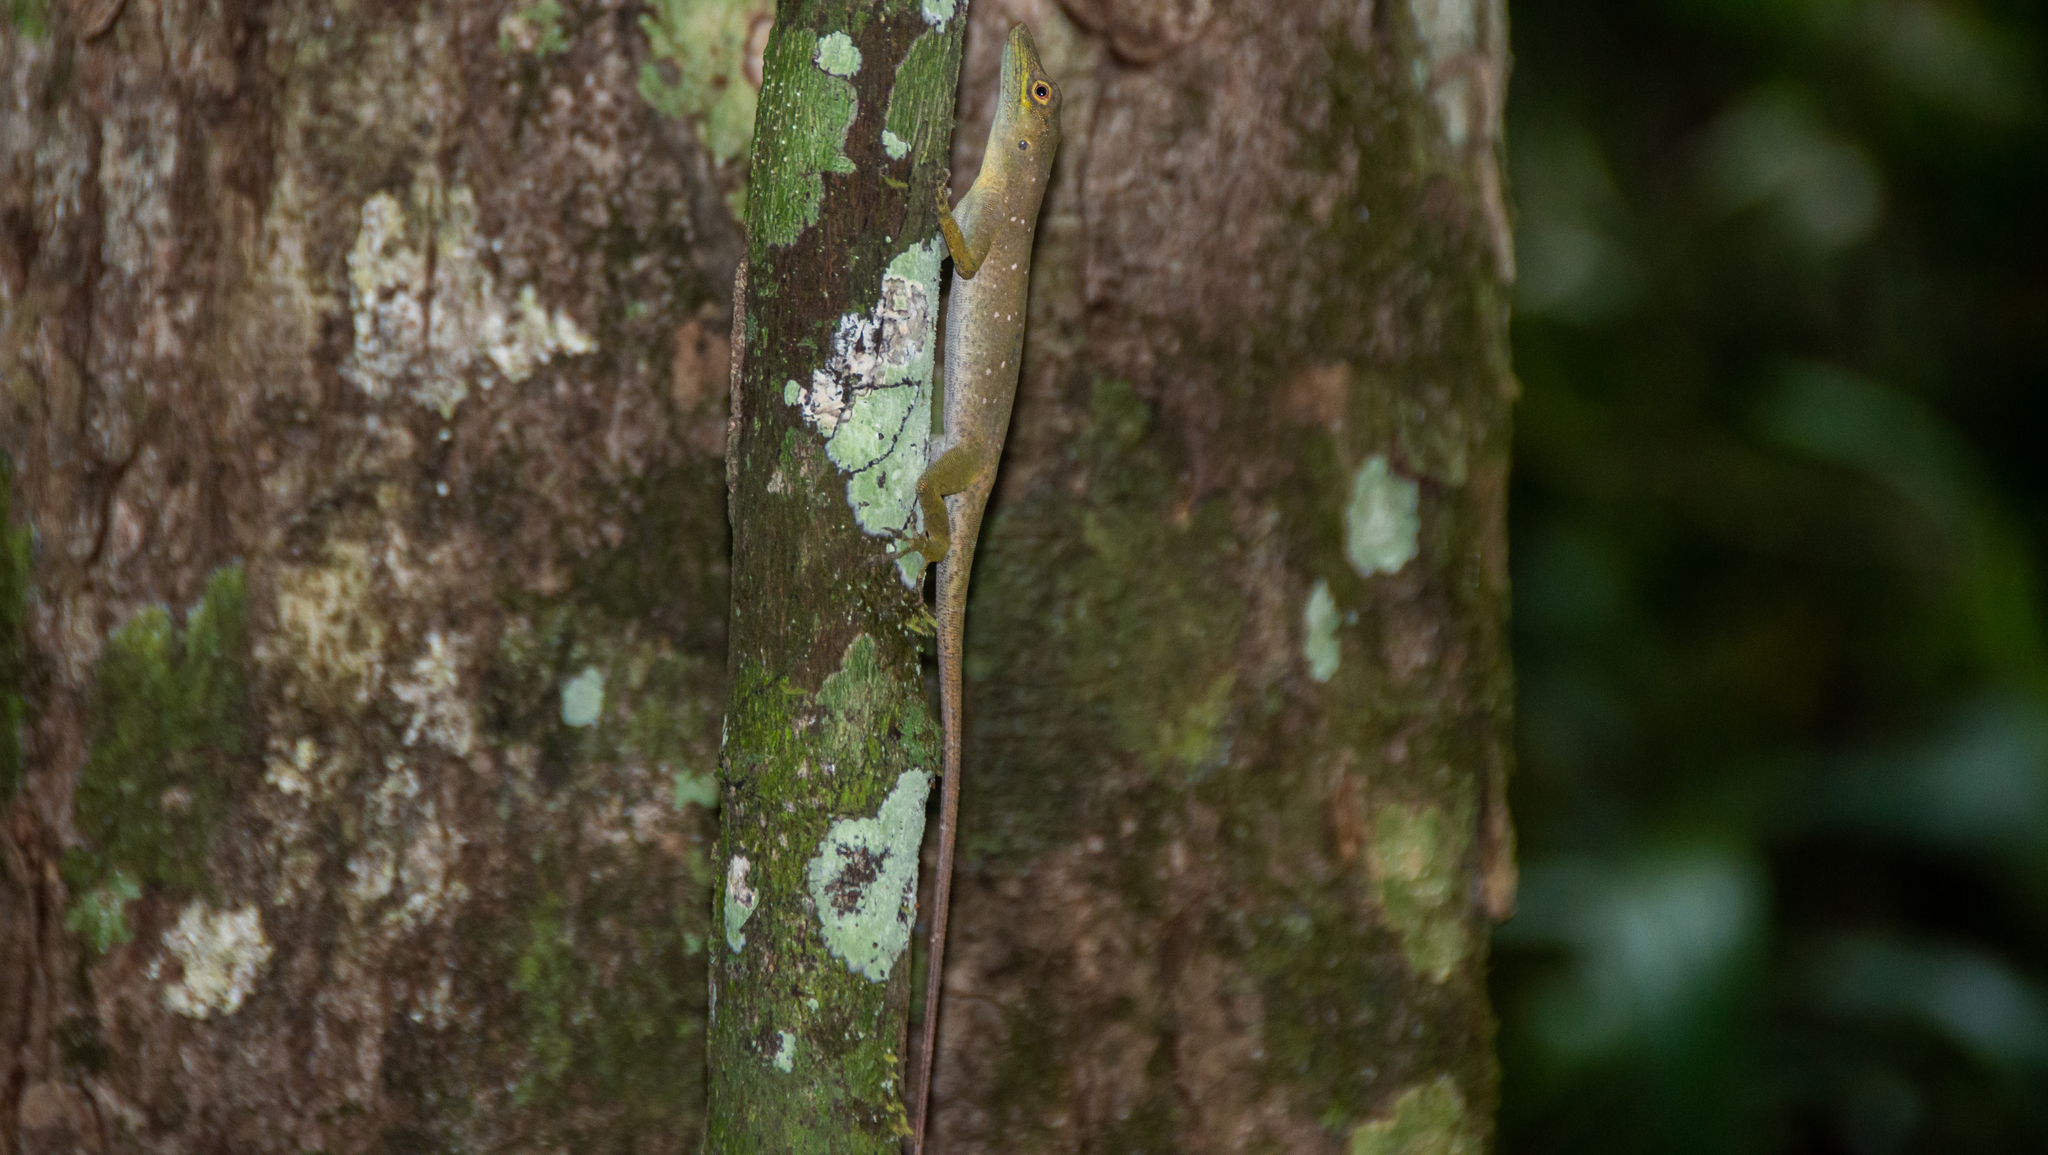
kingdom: Animalia
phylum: Chordata
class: Squamata
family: Dactyloidae
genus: Anolis
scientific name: Anolis punctatus
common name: Amazon green anole
